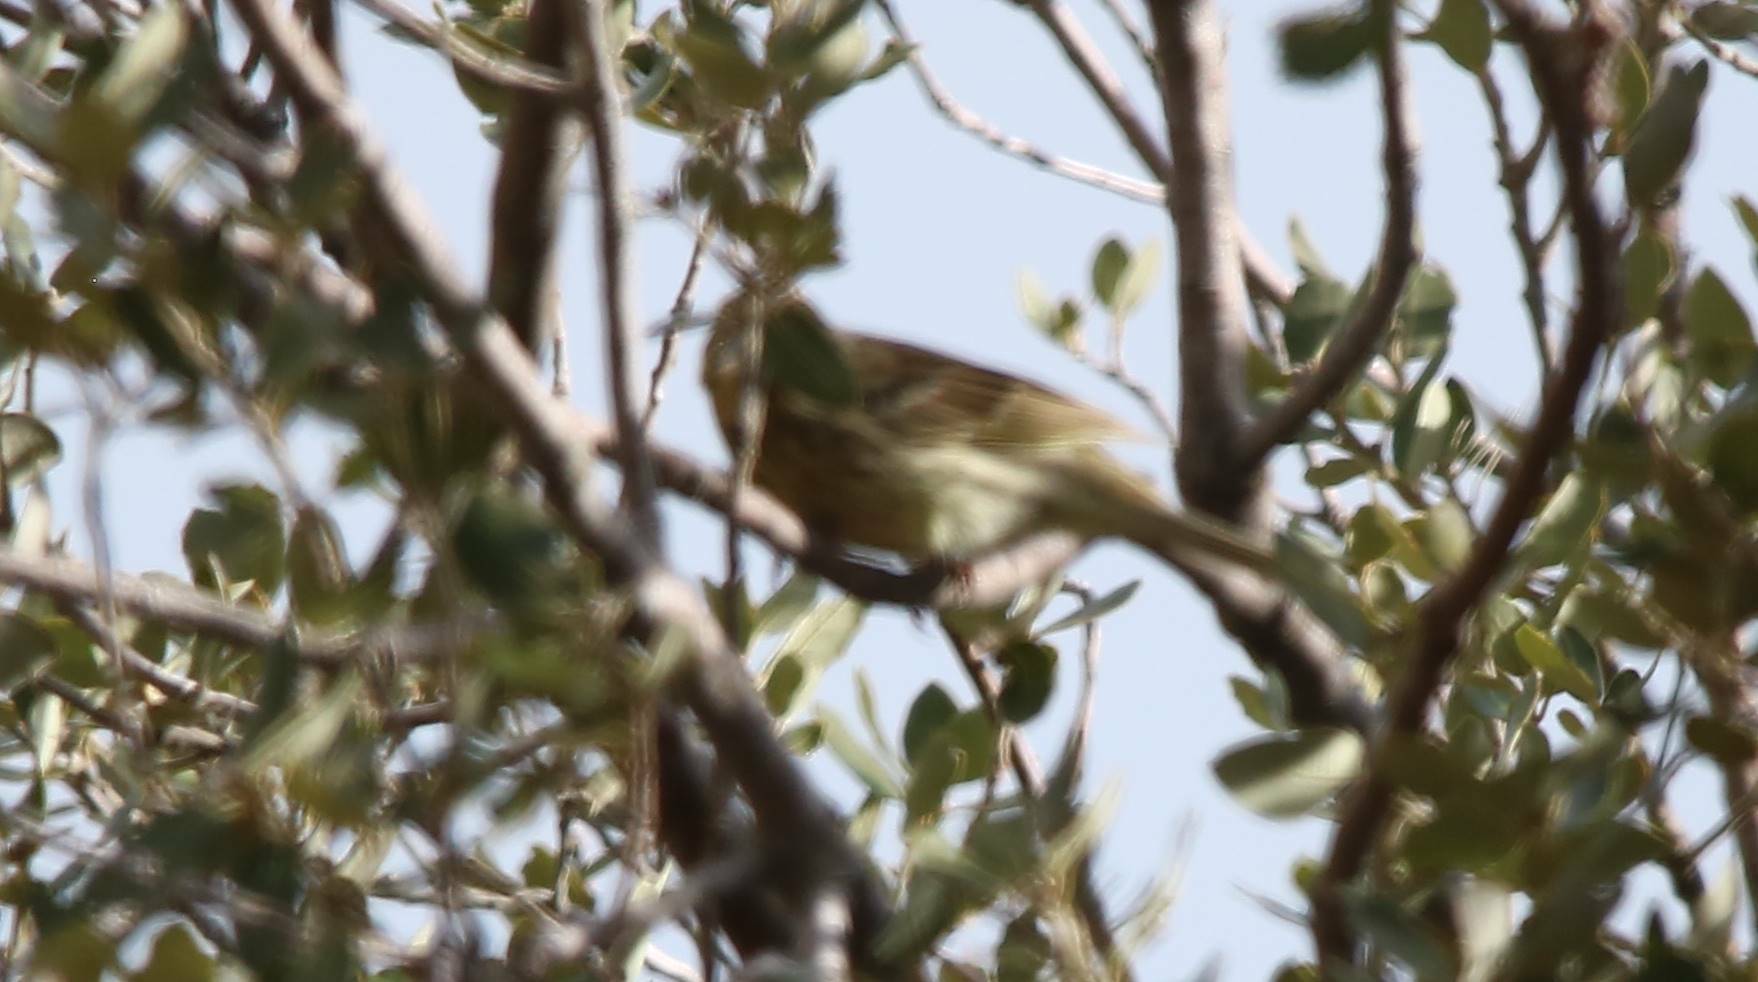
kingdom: Animalia
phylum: Chordata
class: Aves
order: Passeriformes
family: Emberizidae
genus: Emberiza
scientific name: Emberiza cirlus
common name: Cirl bunting
